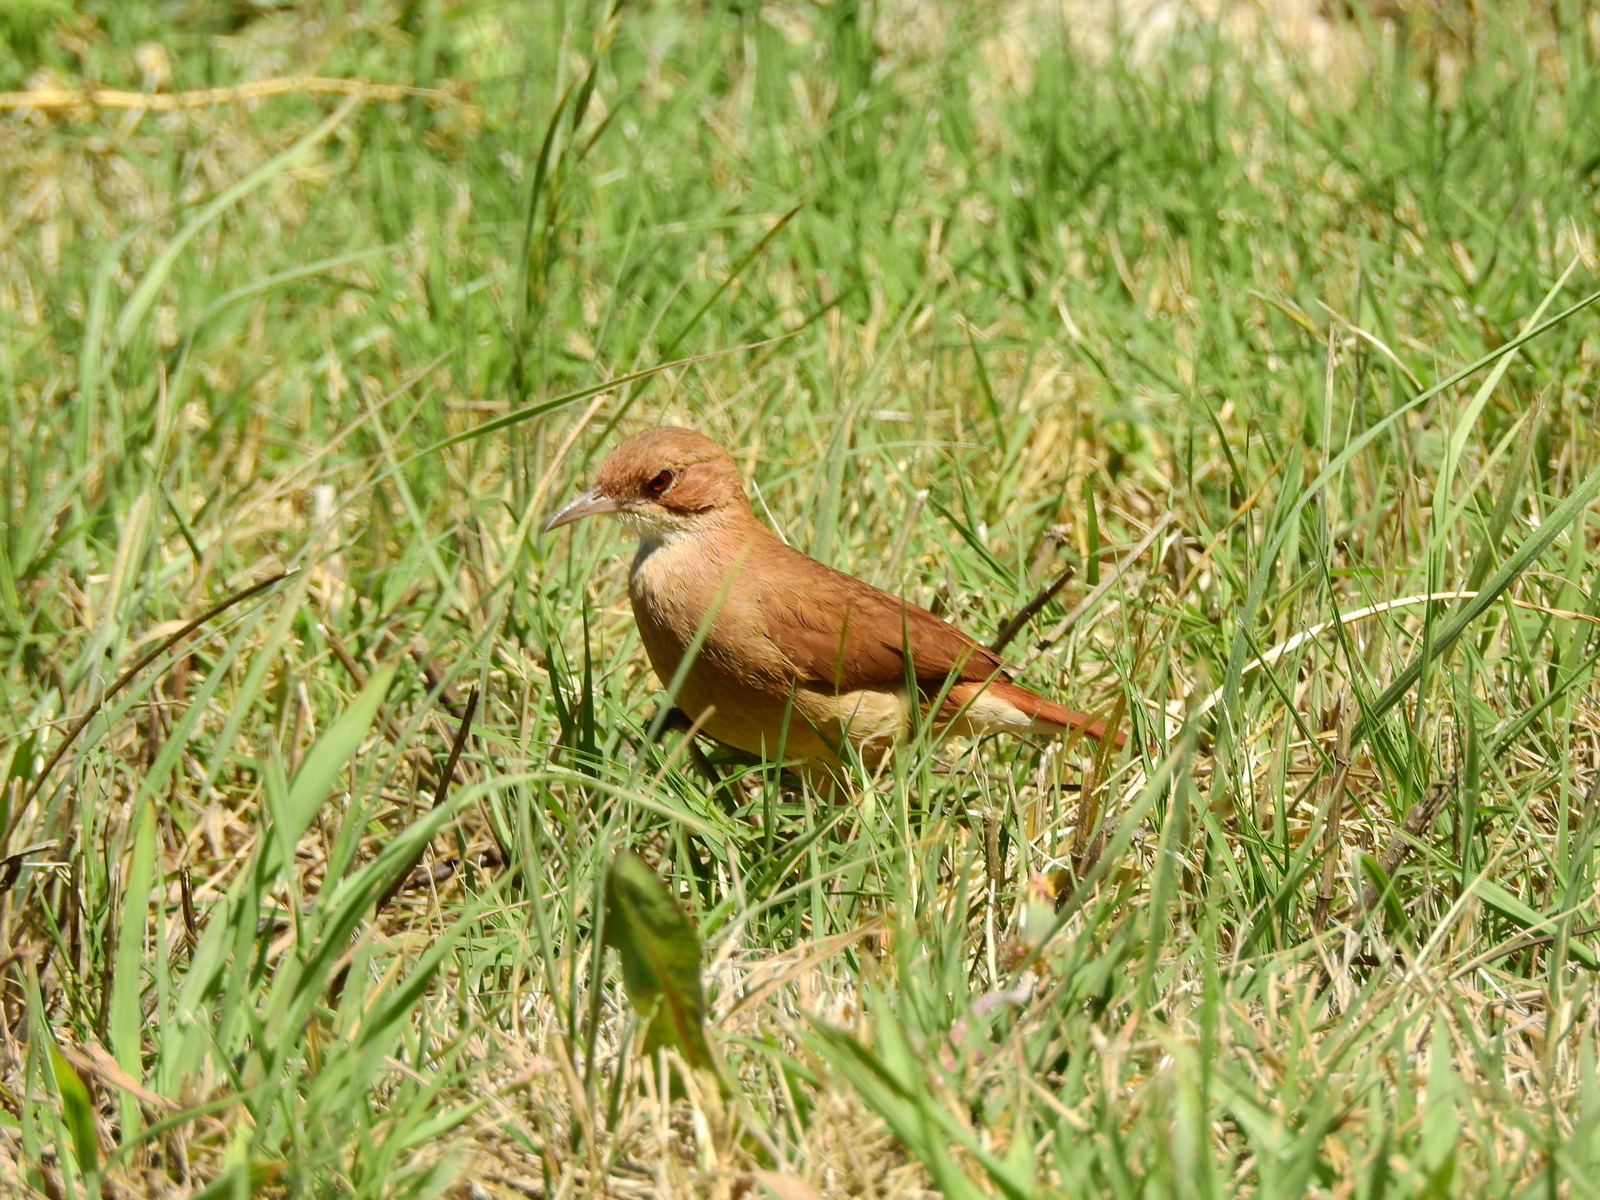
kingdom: Animalia
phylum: Chordata
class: Aves
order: Passeriformes
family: Furnariidae
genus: Furnarius
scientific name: Furnarius rufus
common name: Rufous hornero
